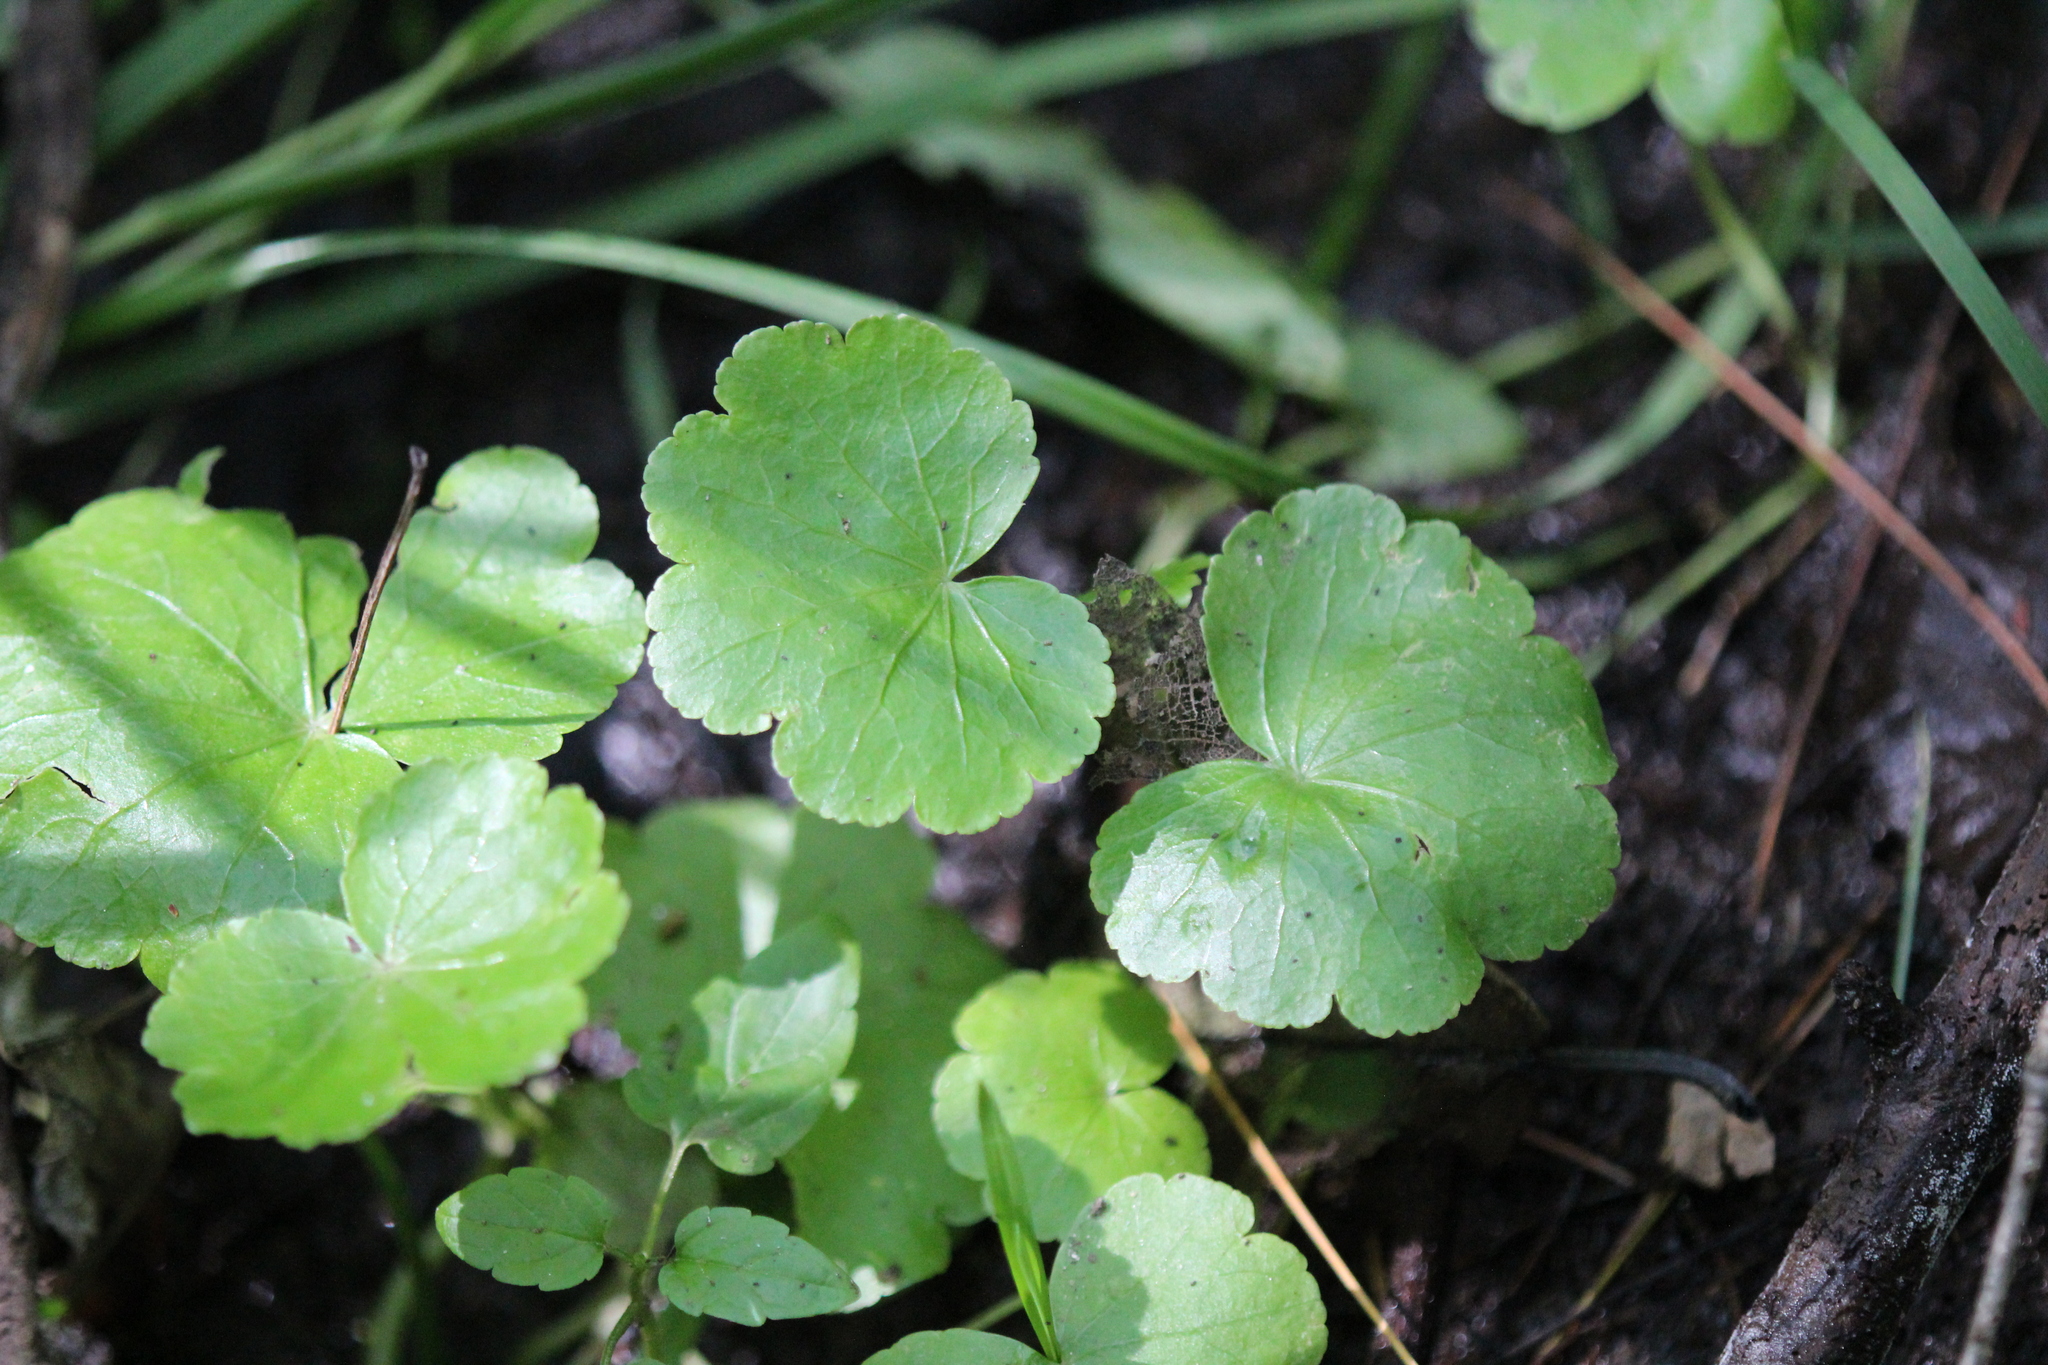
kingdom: Plantae
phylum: Tracheophyta
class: Magnoliopsida
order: Apiales
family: Araliaceae
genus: Hydrocotyle
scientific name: Hydrocotyle americana
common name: American water-pennywort
